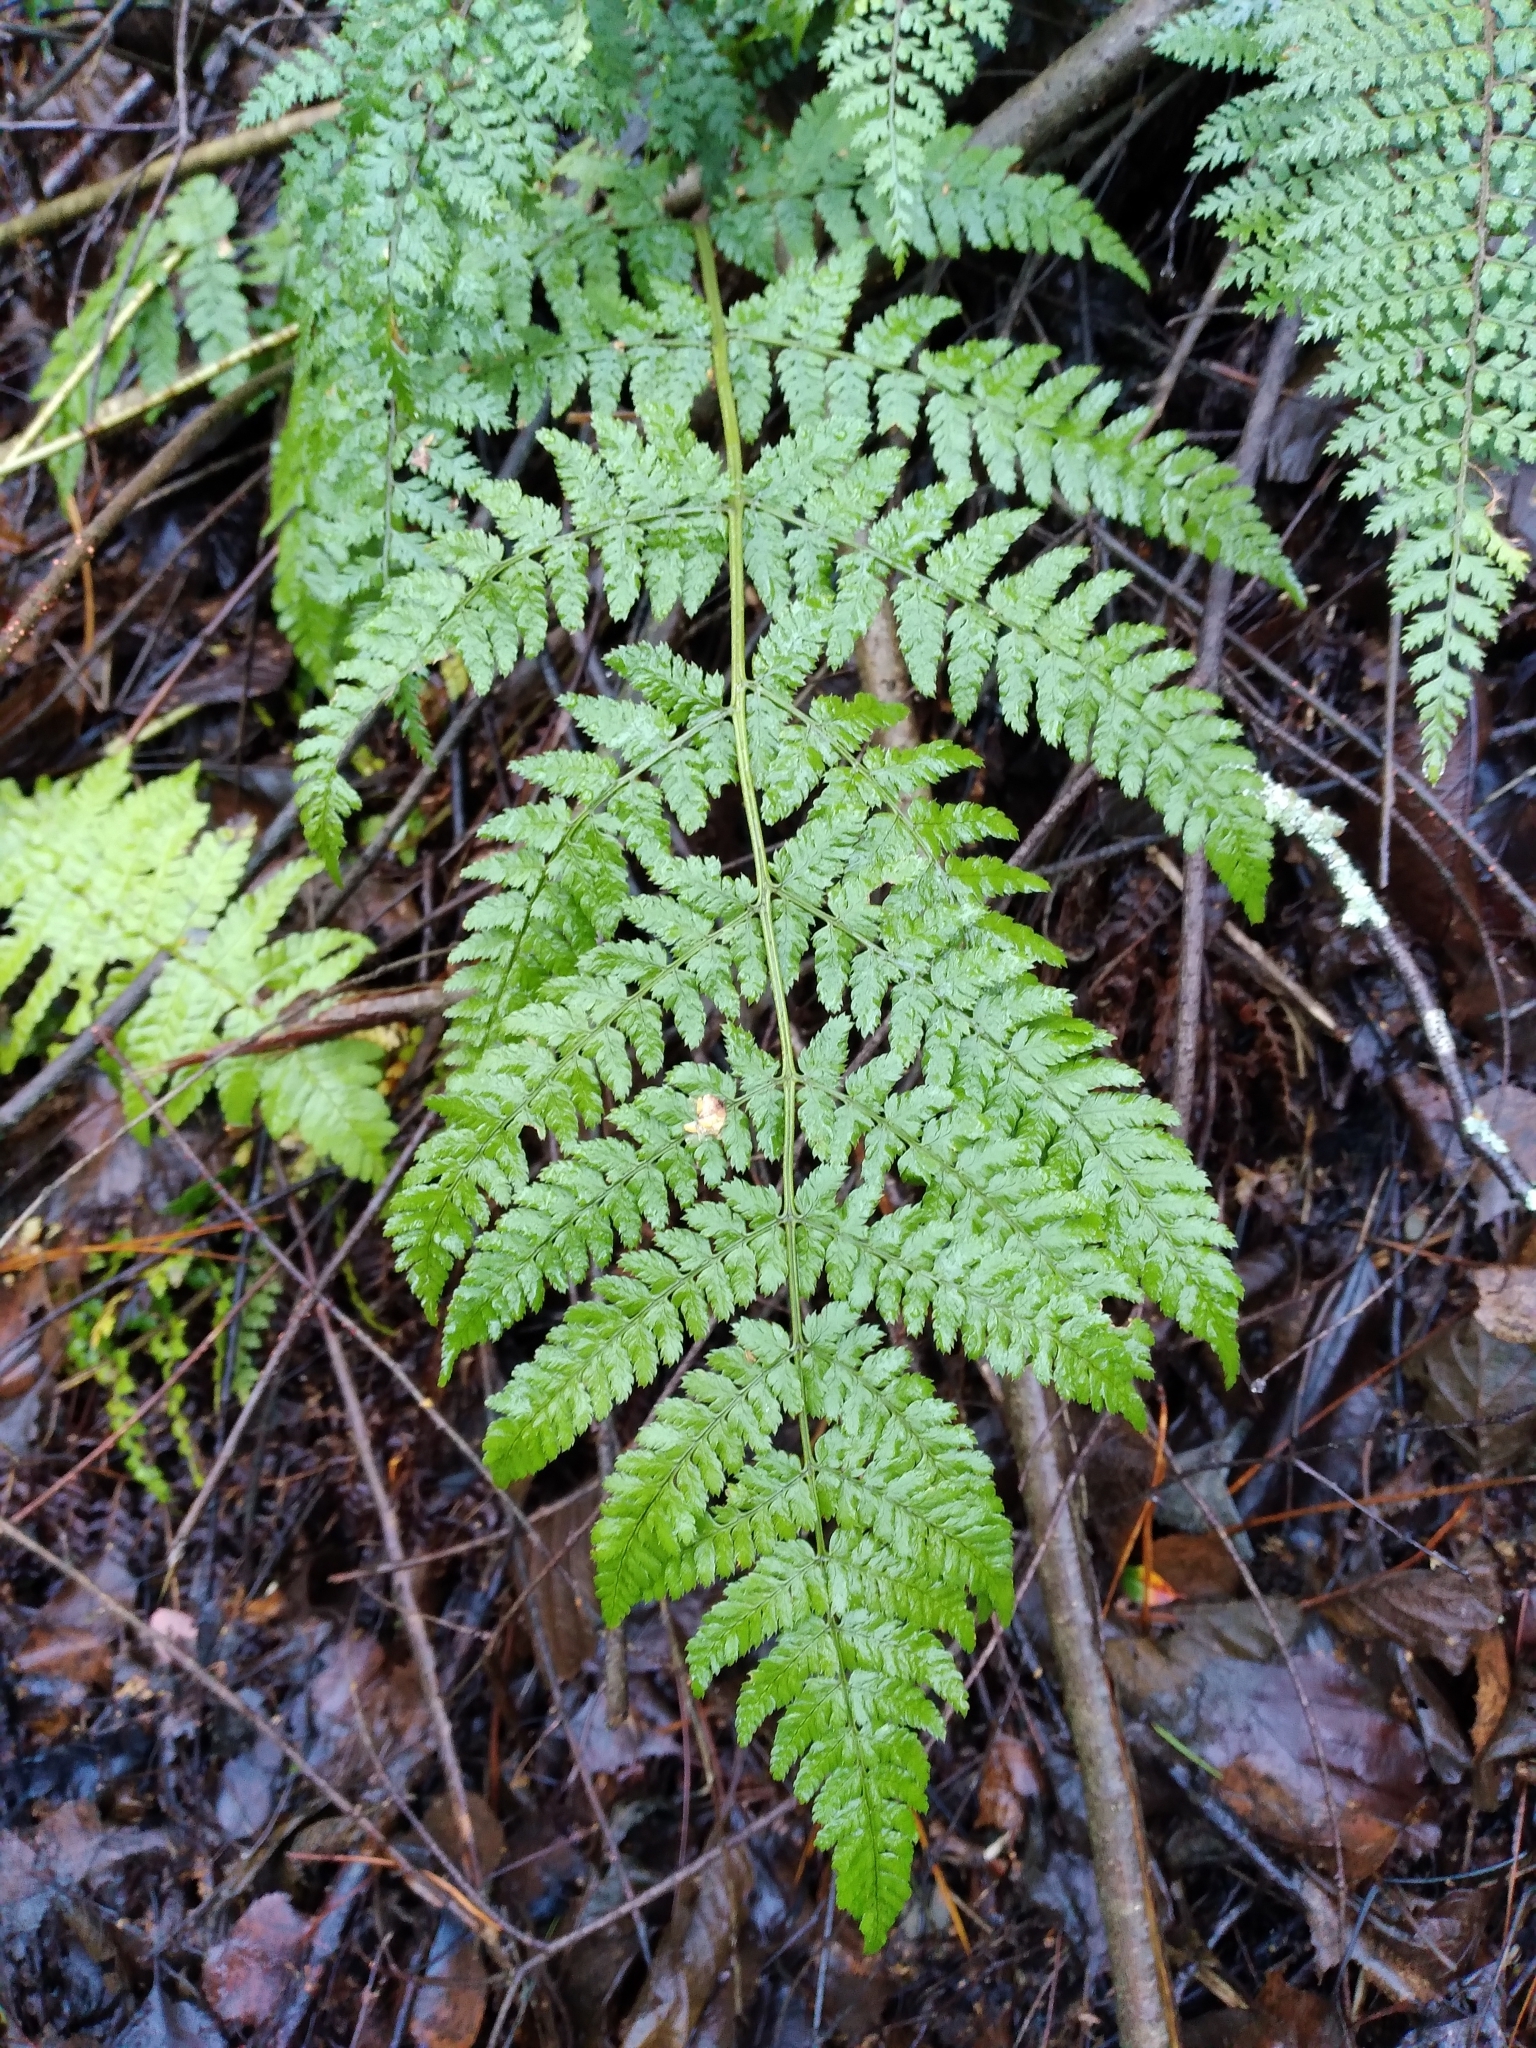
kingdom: Plantae
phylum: Tracheophyta
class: Polypodiopsida
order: Polypodiales
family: Dryopteridaceae
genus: Dryopteris
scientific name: Dryopteris dilatata
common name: Broad buckler-fern
